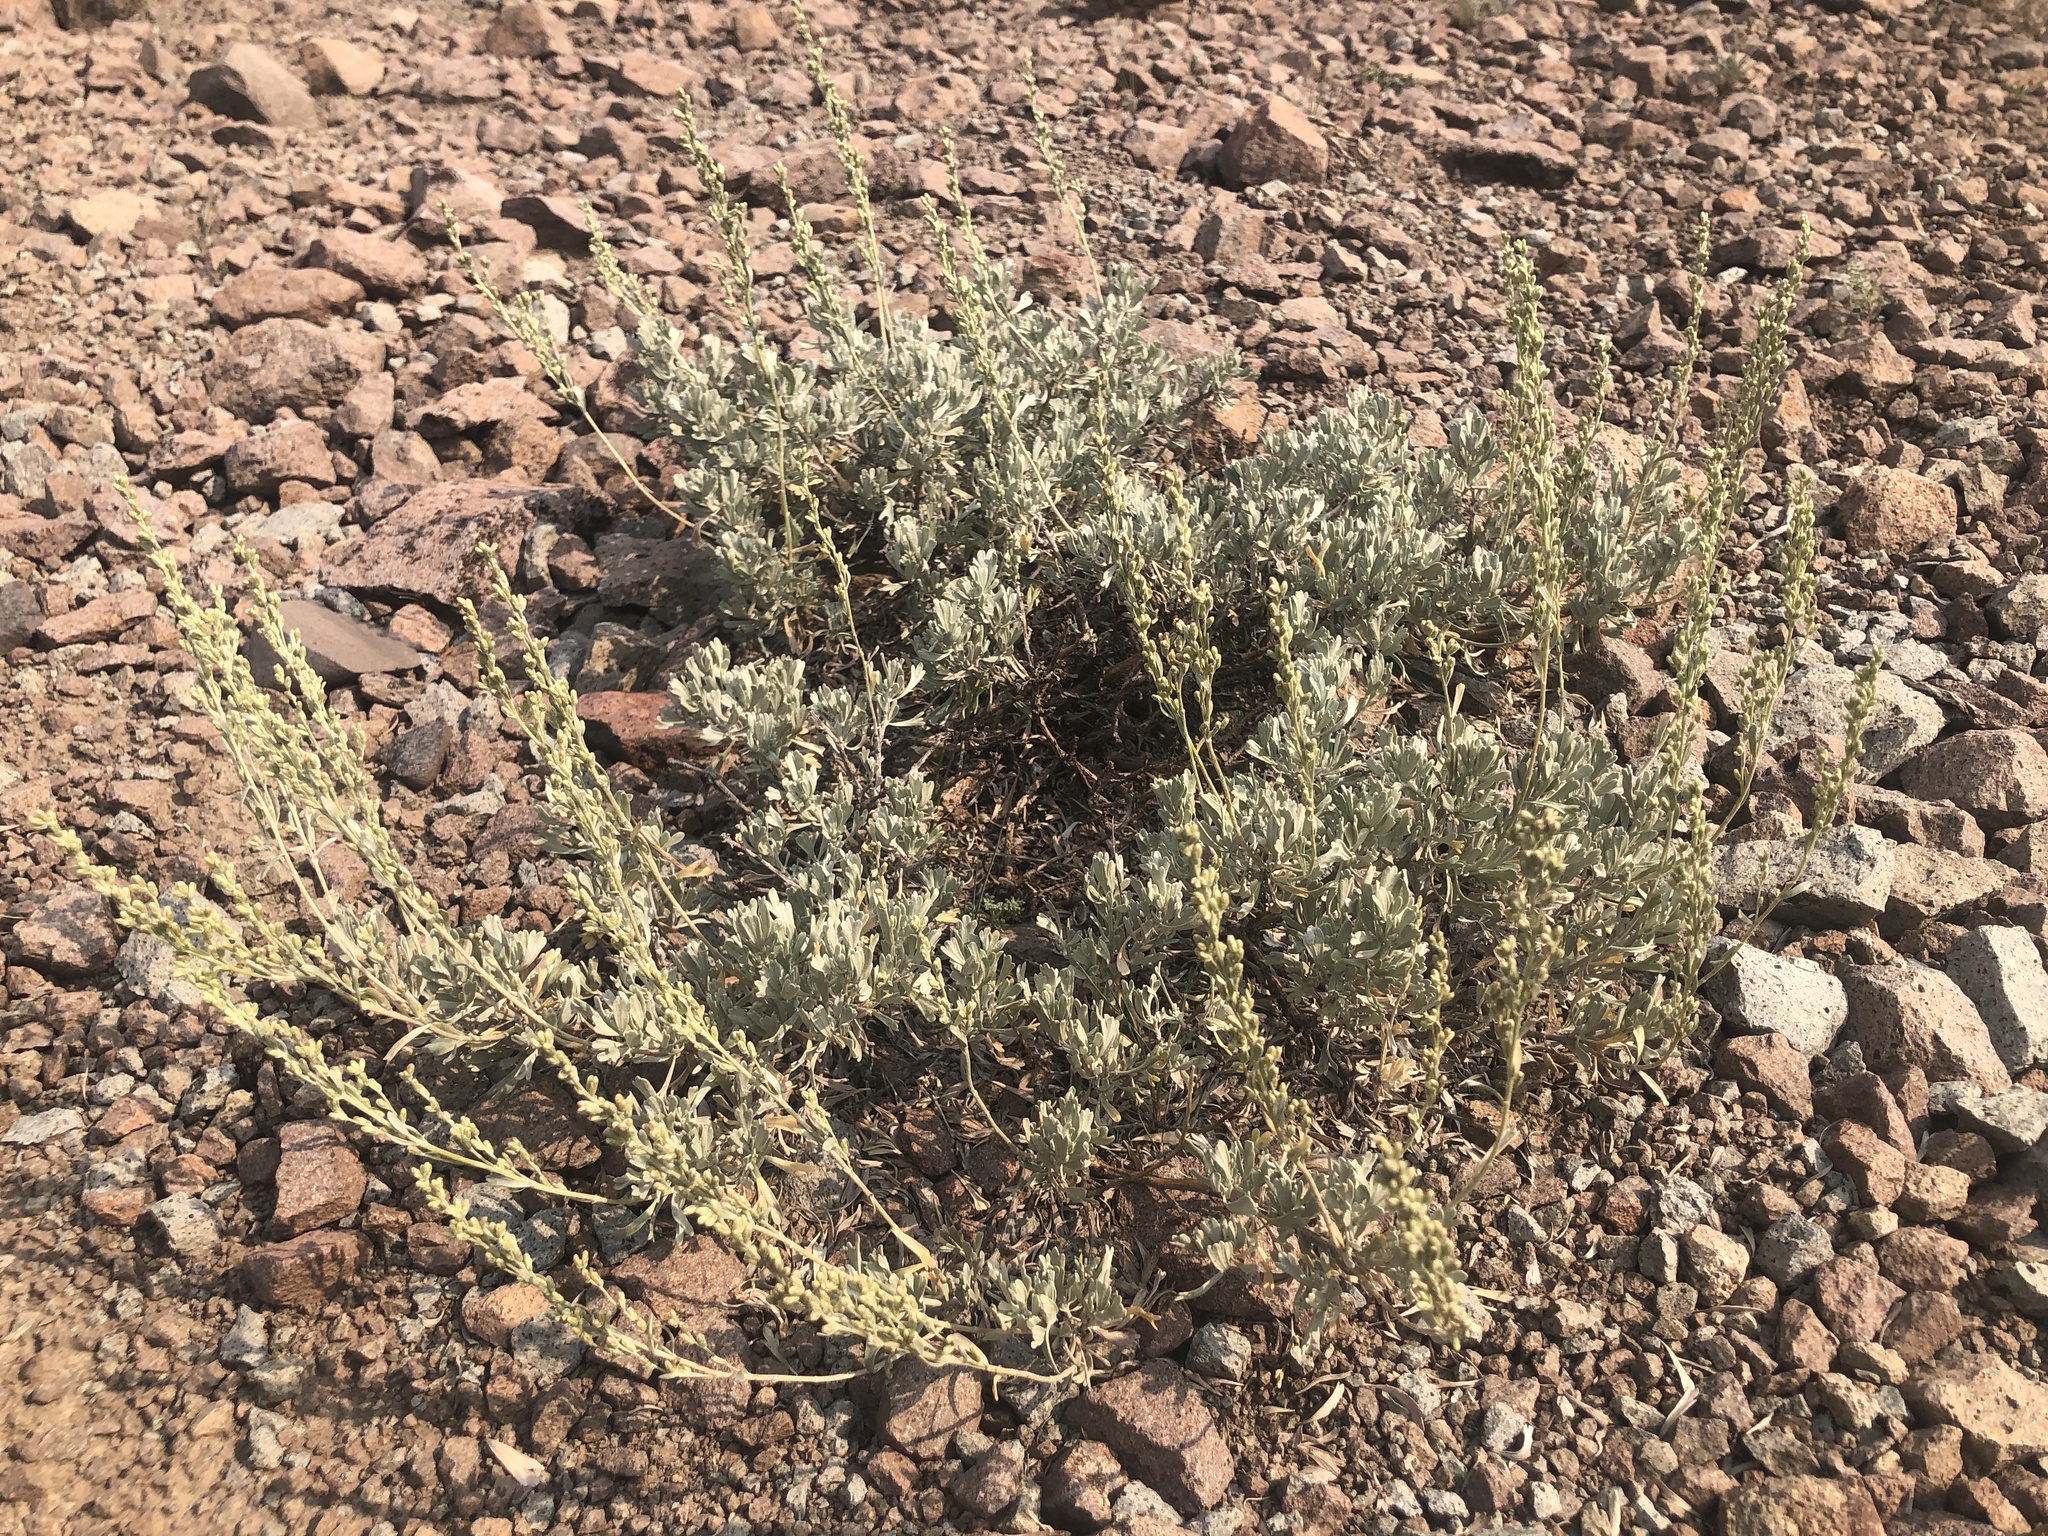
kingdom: Plantae
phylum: Tracheophyta
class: Magnoliopsida
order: Asterales
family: Asteraceae
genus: Artemisia
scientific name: Artemisia arbuscula
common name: Sagebrush
